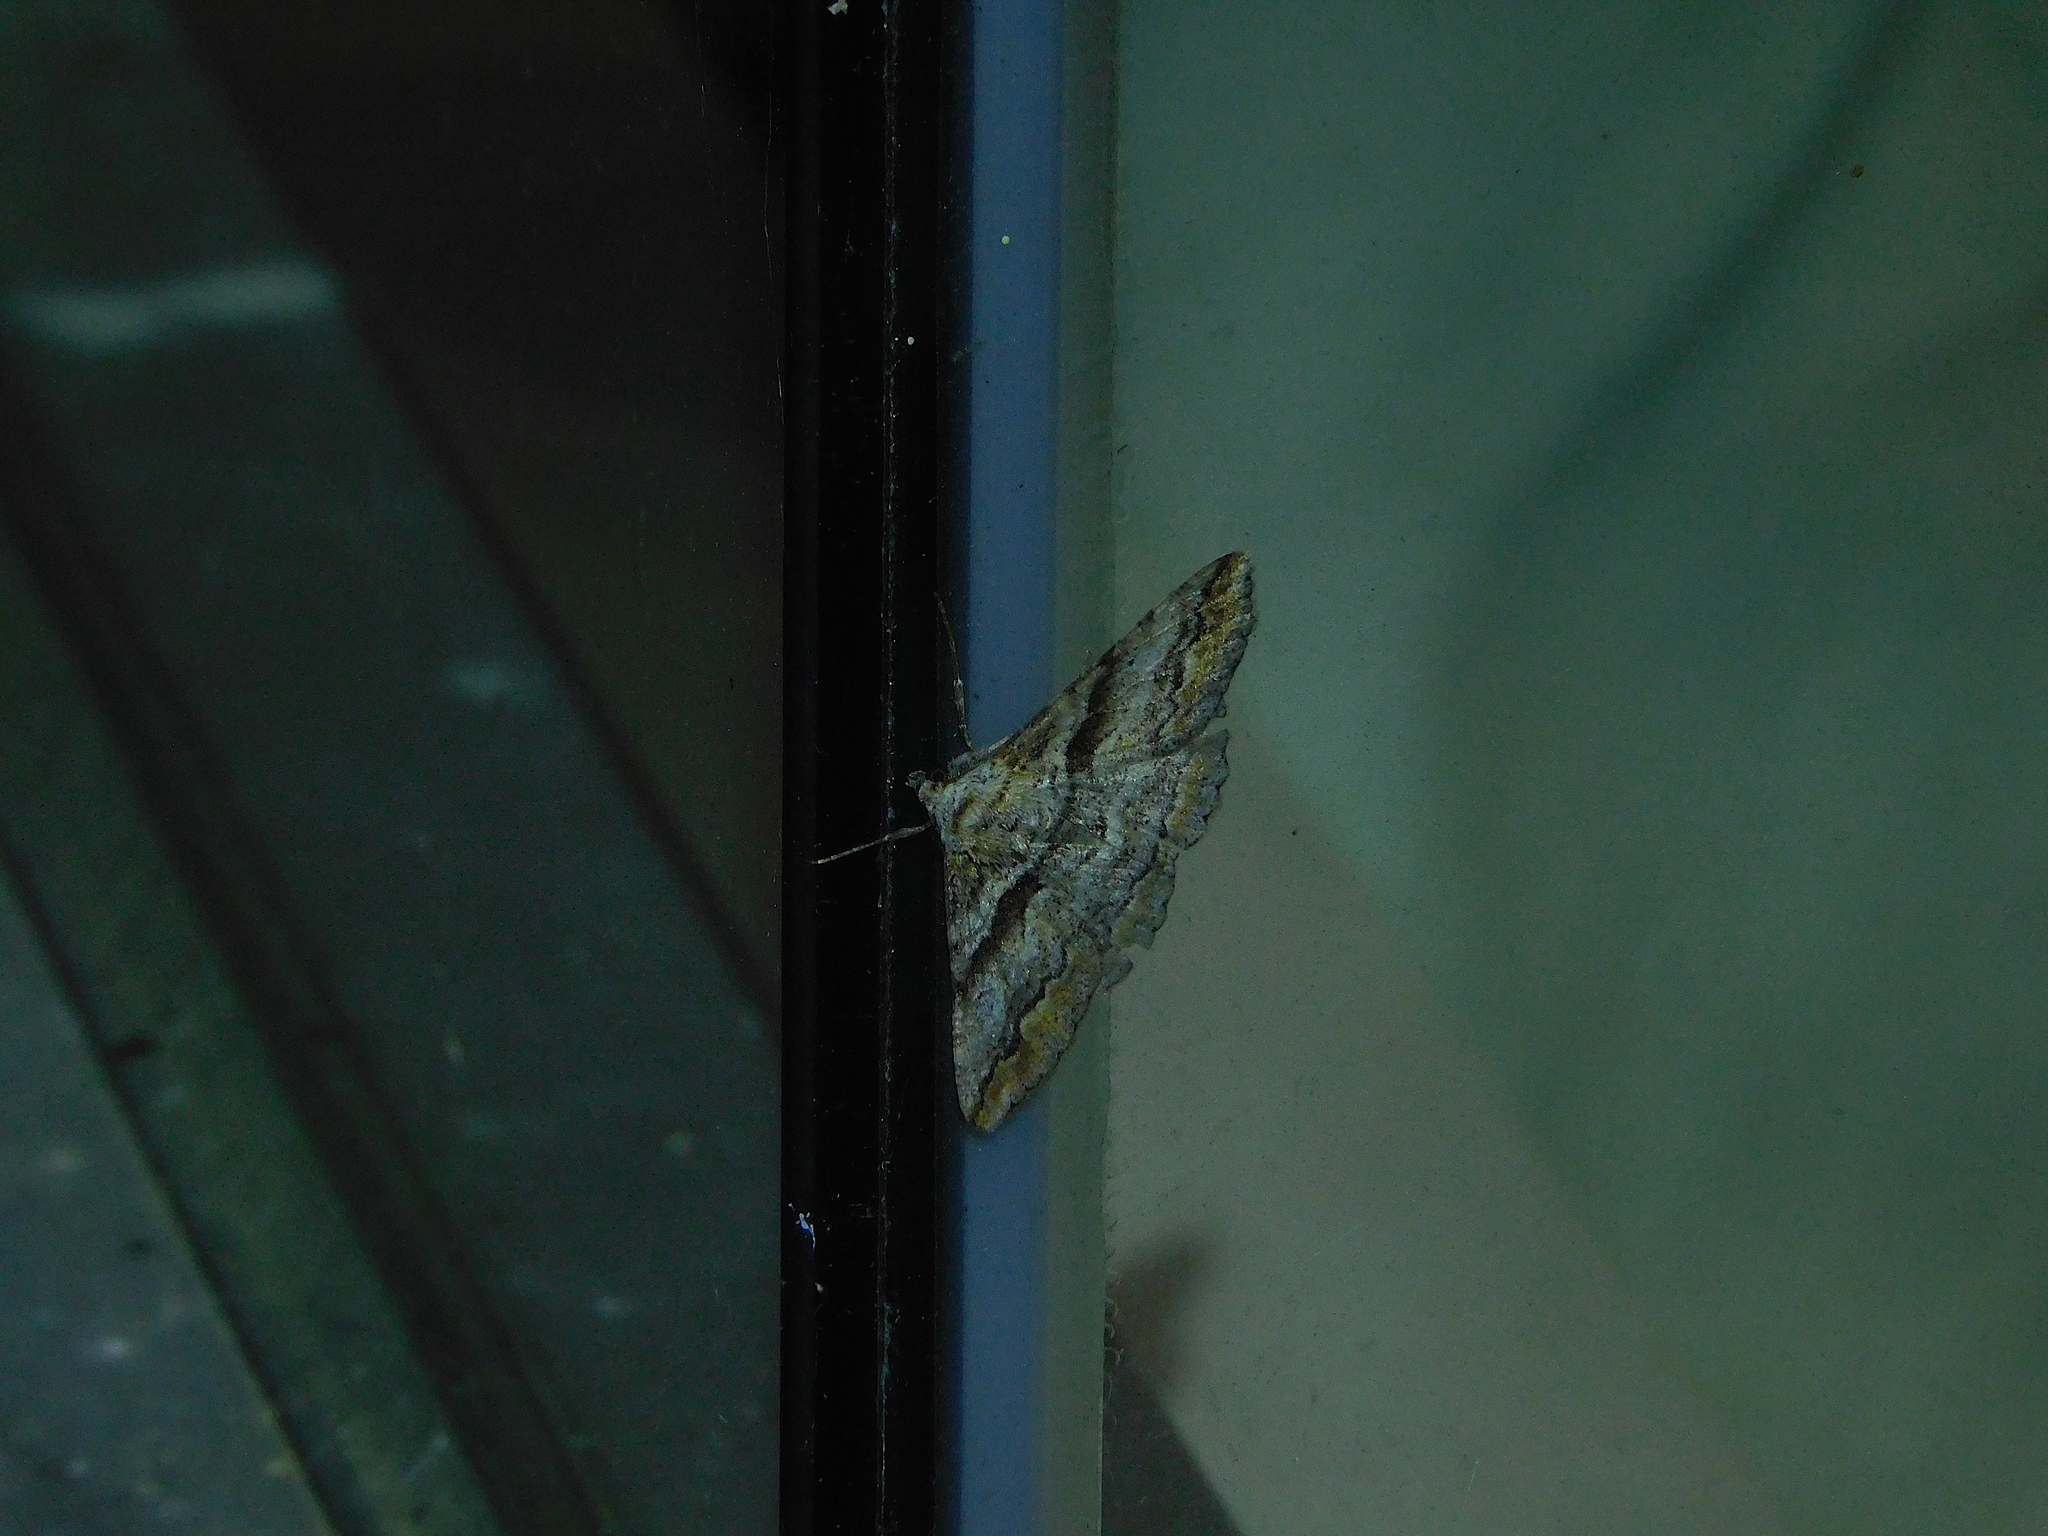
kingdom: Animalia
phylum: Arthropoda
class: Insecta
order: Lepidoptera
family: Geometridae
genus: Gastrinodes
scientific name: Gastrinodes bitaeniaria
